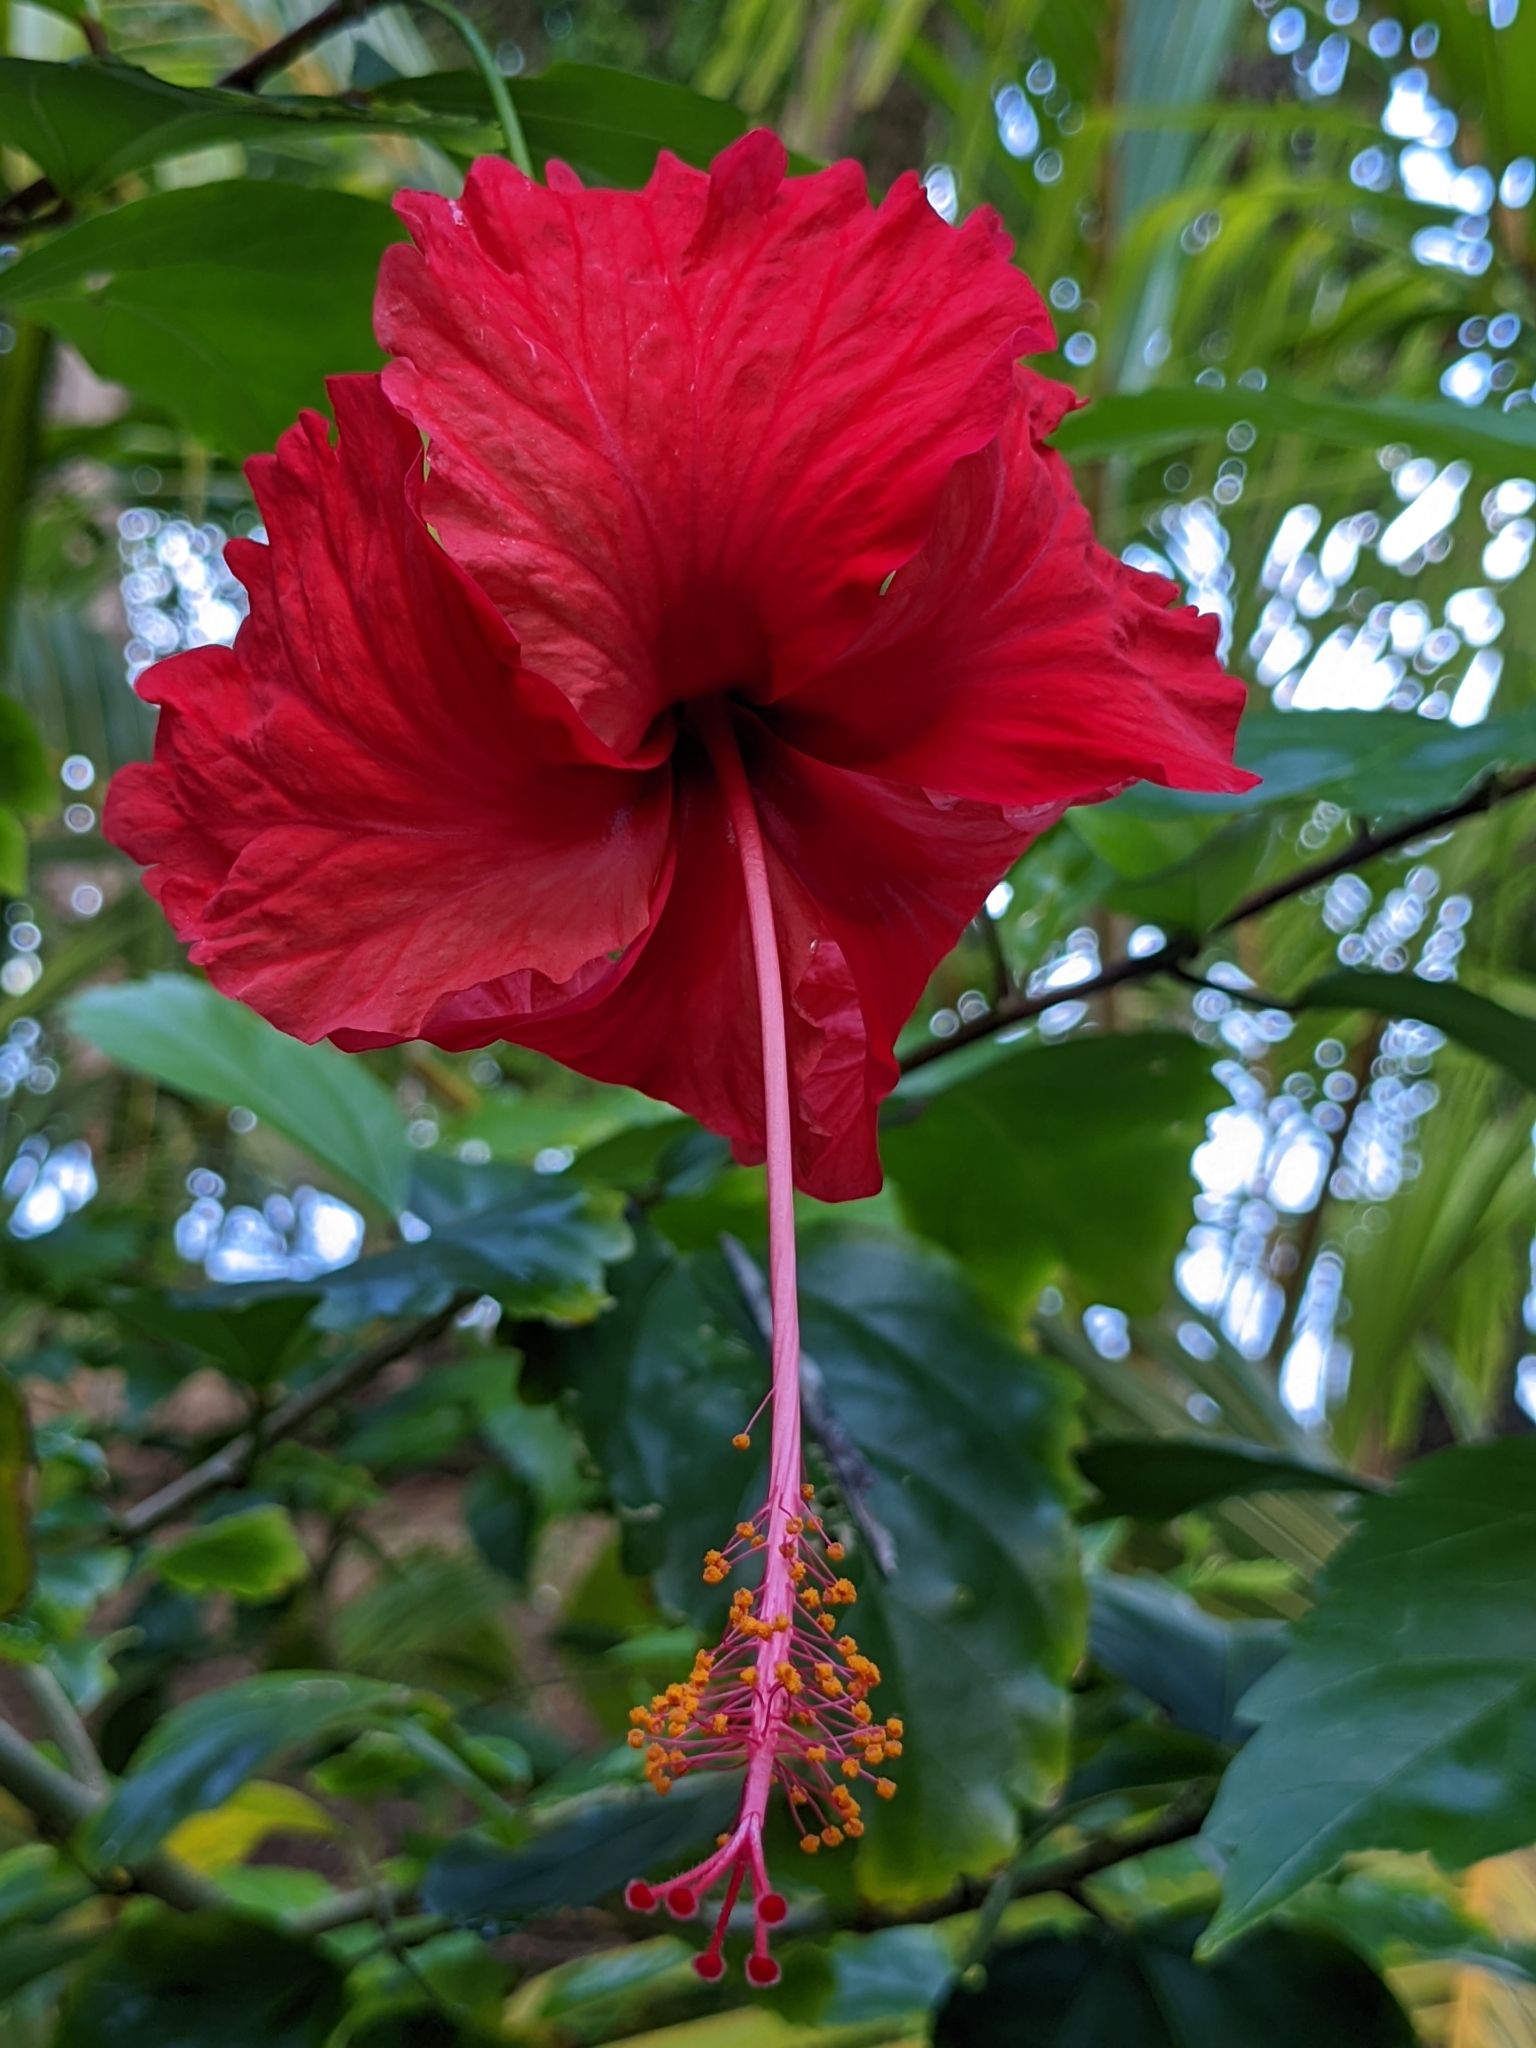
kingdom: Plantae
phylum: Tracheophyta
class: Magnoliopsida
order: Malvales
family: Malvaceae
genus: Hibiscus
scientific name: Hibiscus archeri
